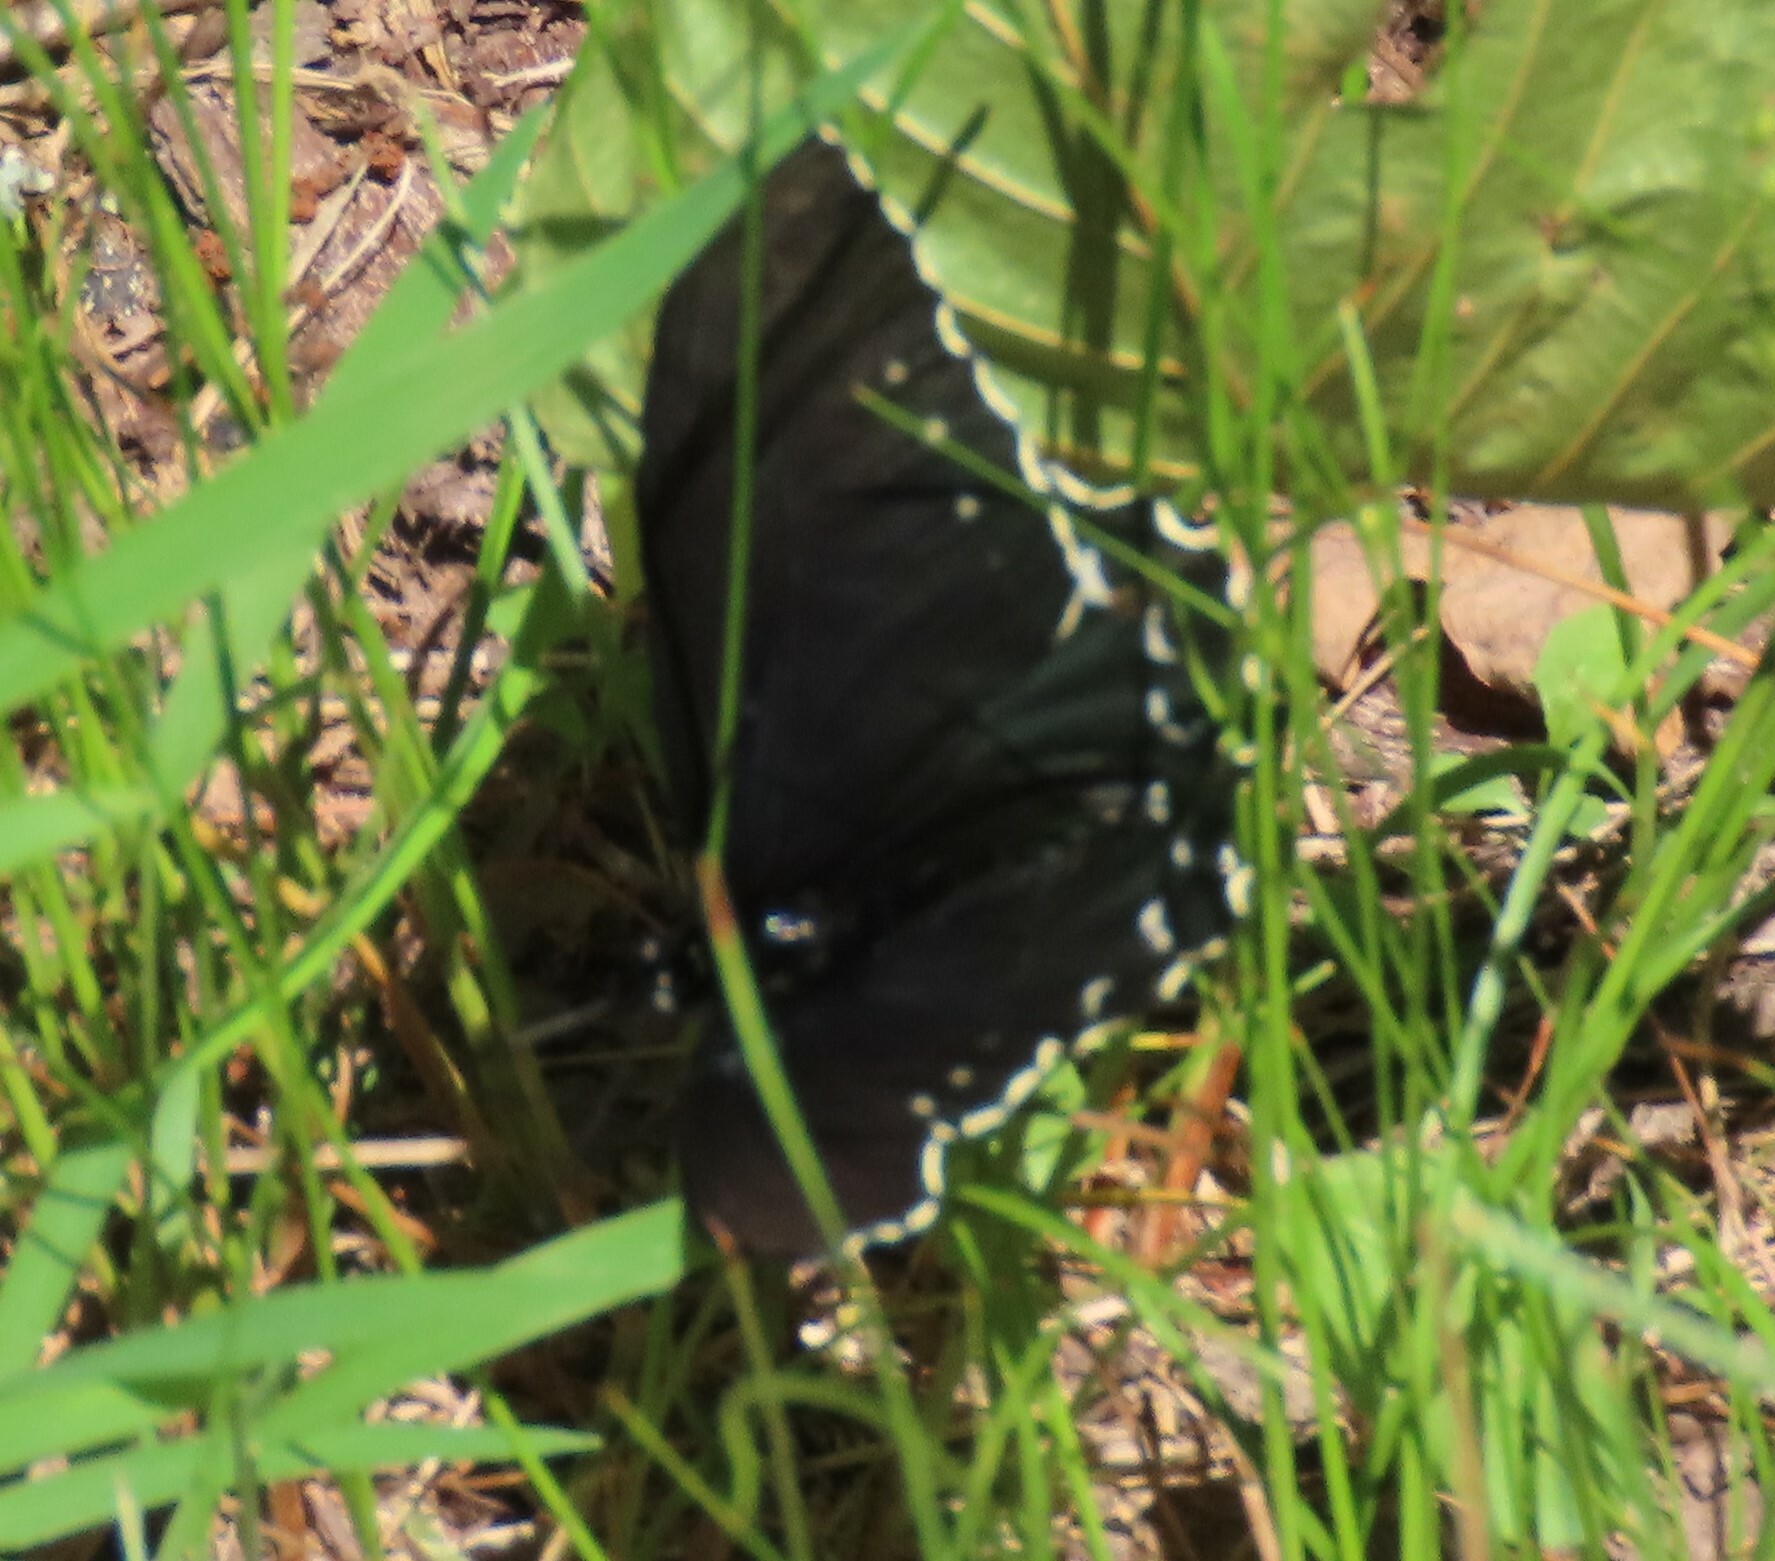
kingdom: Animalia
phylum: Arthropoda
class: Insecta
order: Lepidoptera
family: Papilionidae
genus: Battus
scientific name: Battus philenor
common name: Pipevine swallowtail
